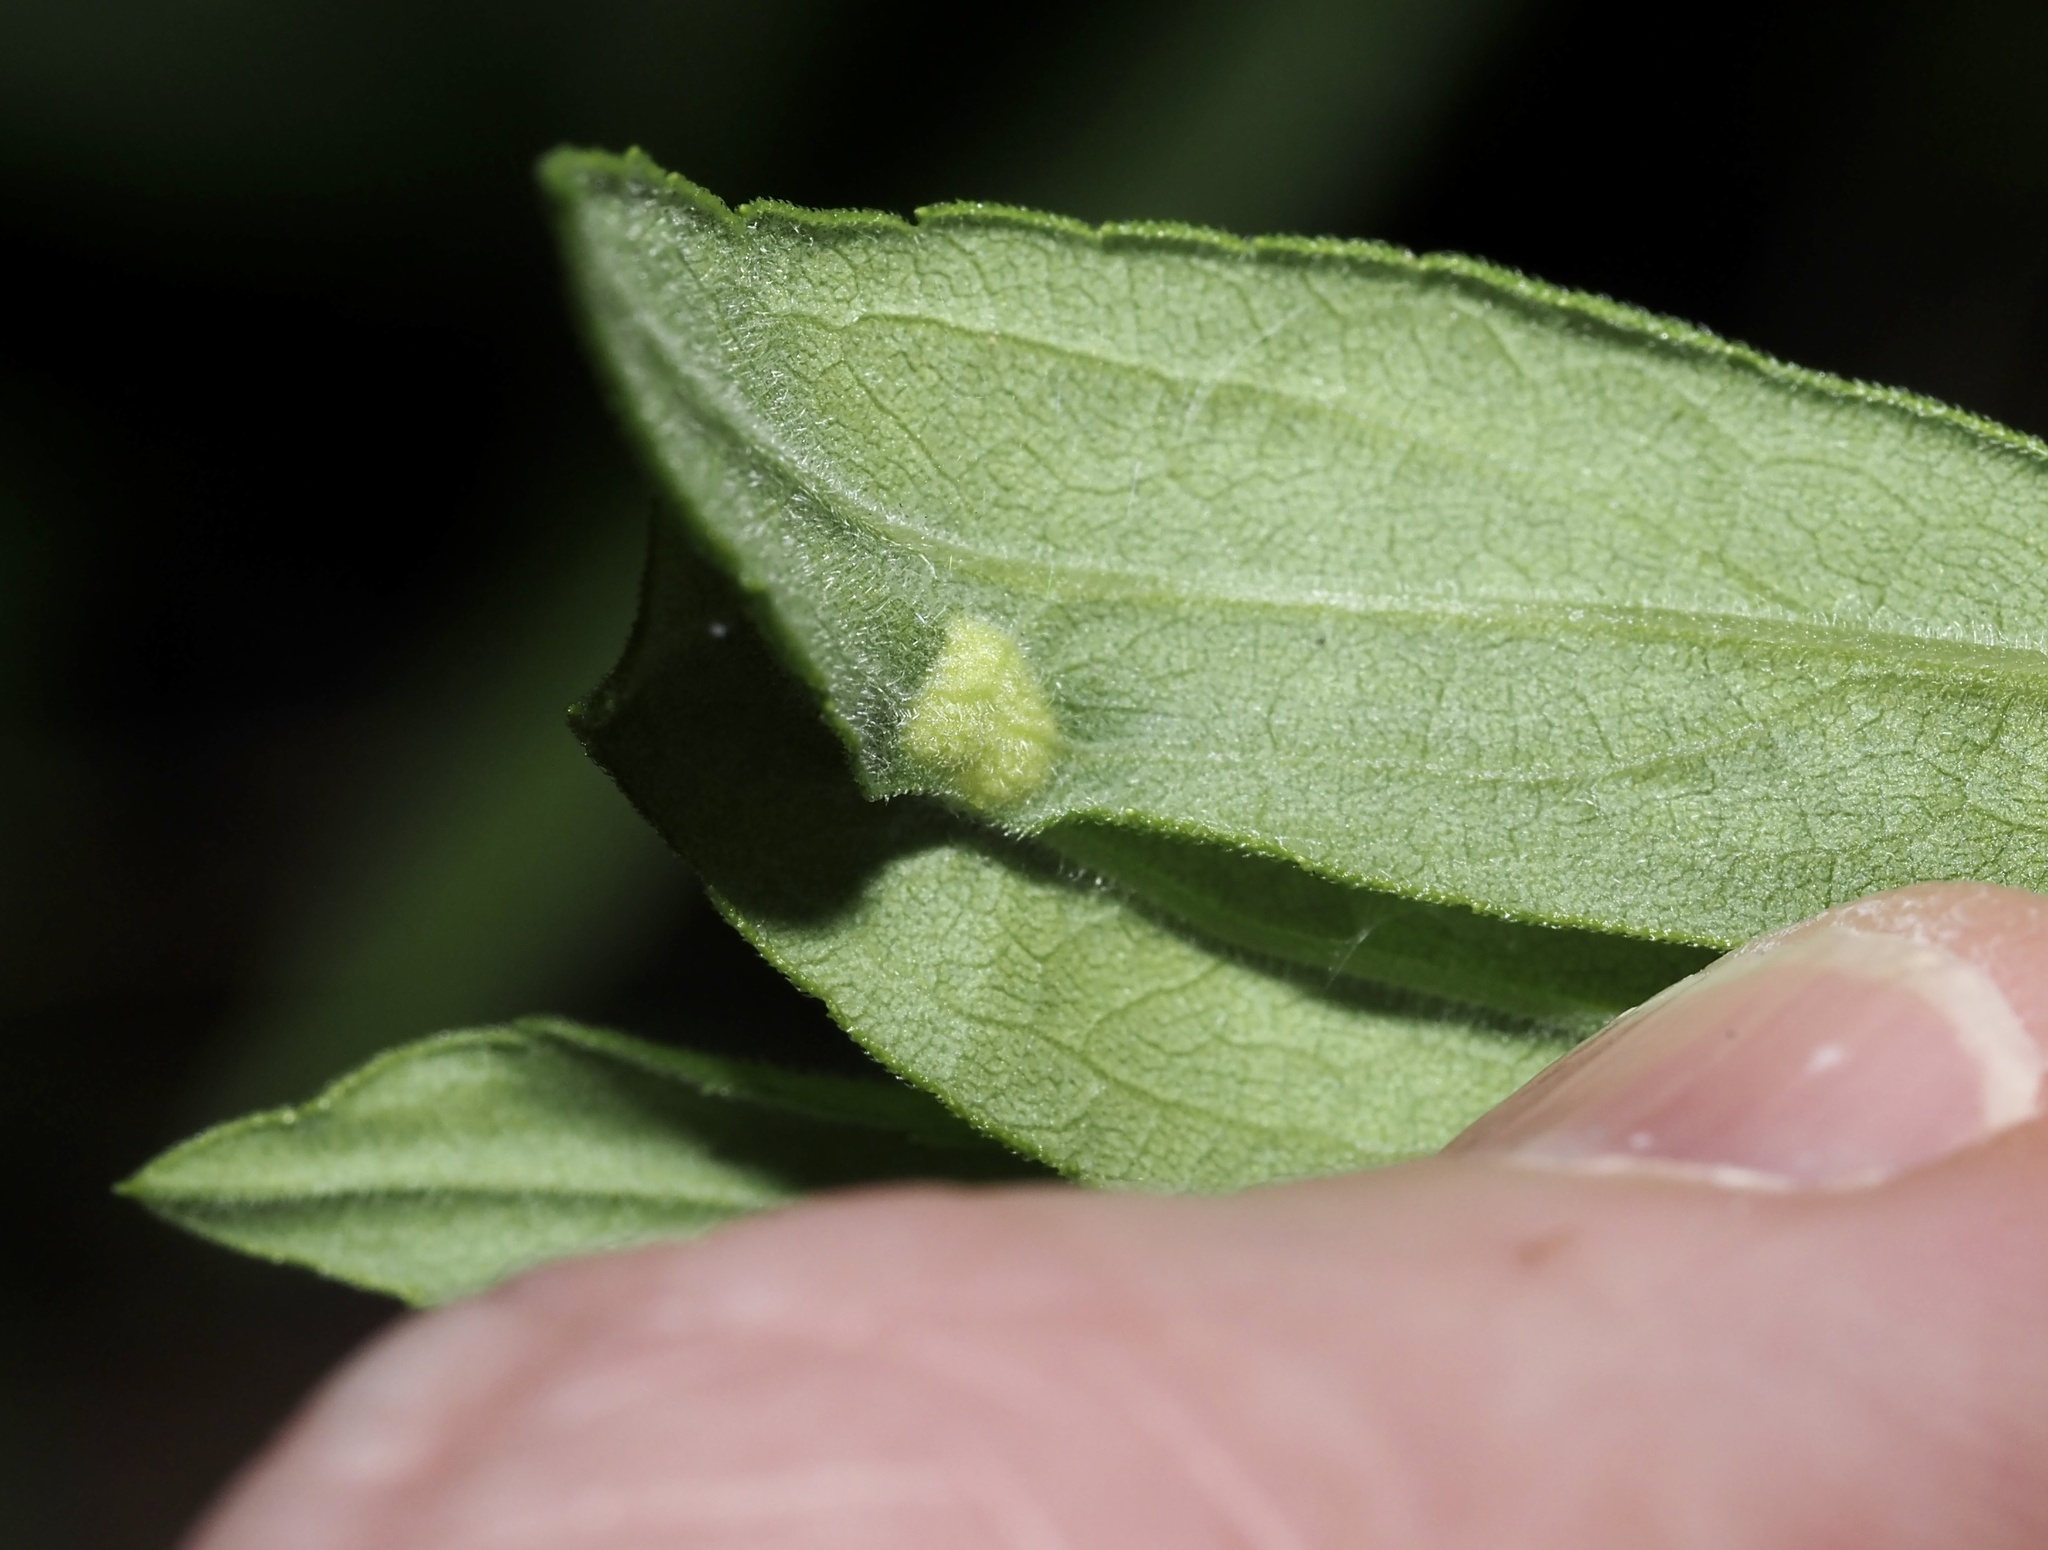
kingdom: Animalia
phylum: Arthropoda
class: Insecta
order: Diptera
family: Cecidomyiidae
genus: Asphondylia
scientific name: Asphondylia solidaginis
